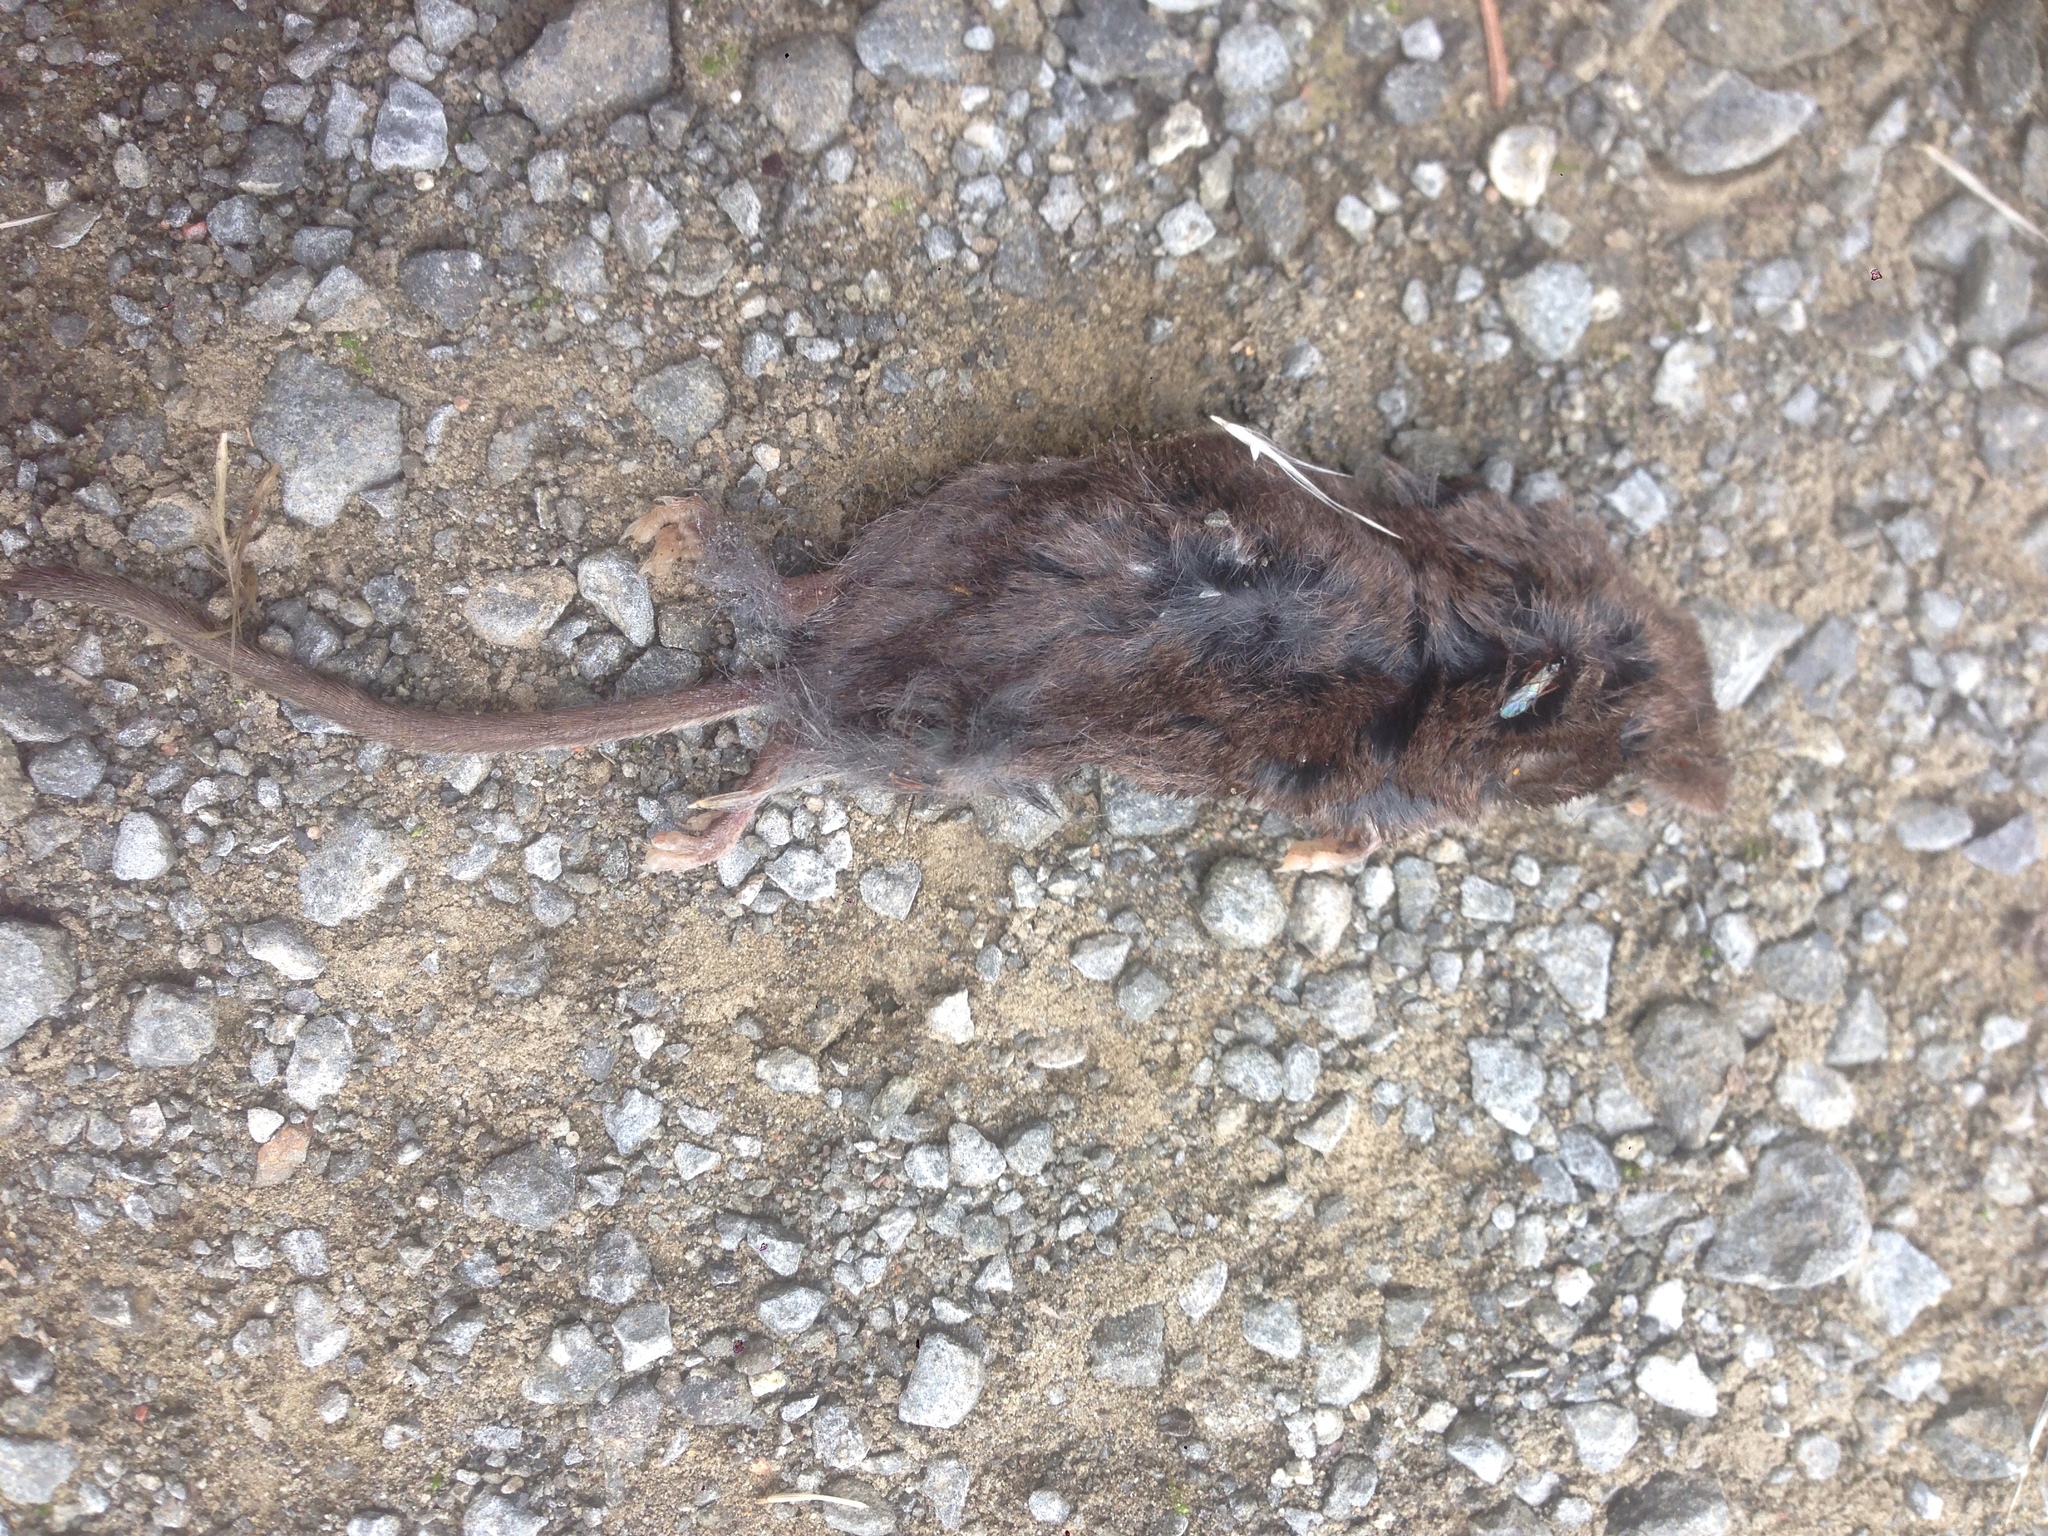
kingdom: Animalia
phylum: Chordata
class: Mammalia
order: Soricomorpha
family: Soricidae
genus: Sorex
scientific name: Sorex vagrans
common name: Vagrant shrew
